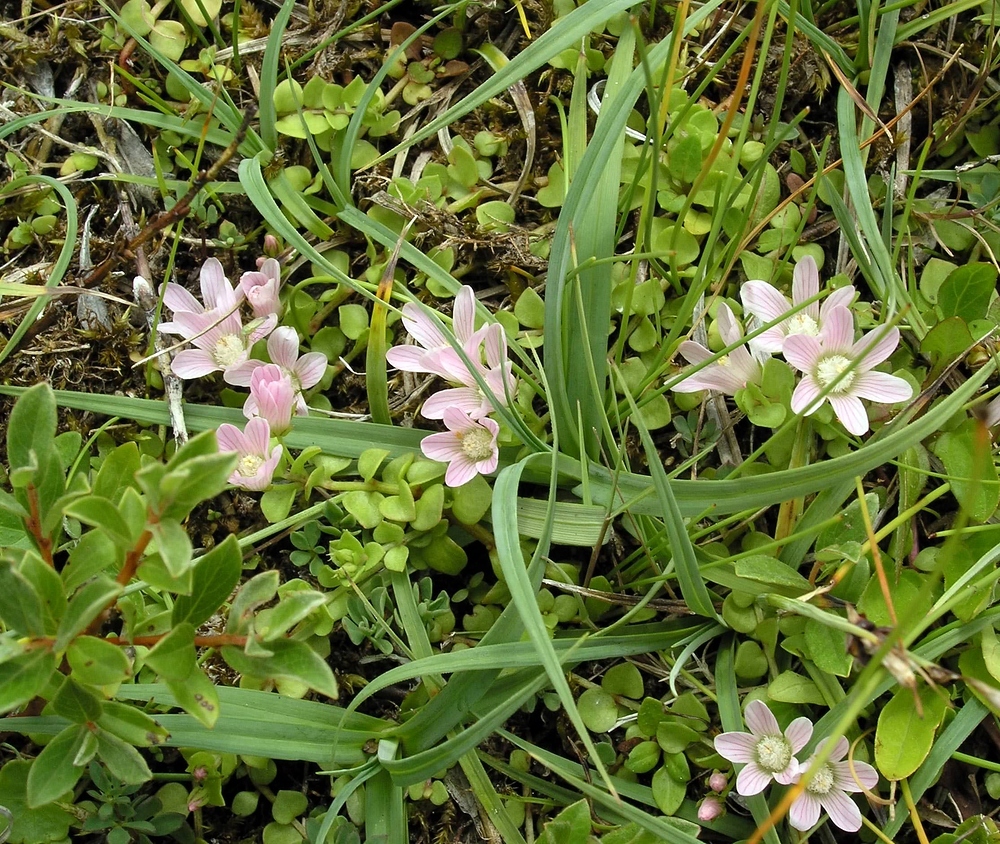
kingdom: Plantae
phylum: Tracheophyta
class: Magnoliopsida
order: Ericales
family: Primulaceae
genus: Lysimachia
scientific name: Lysimachia tenella
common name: European bog pimpernel
